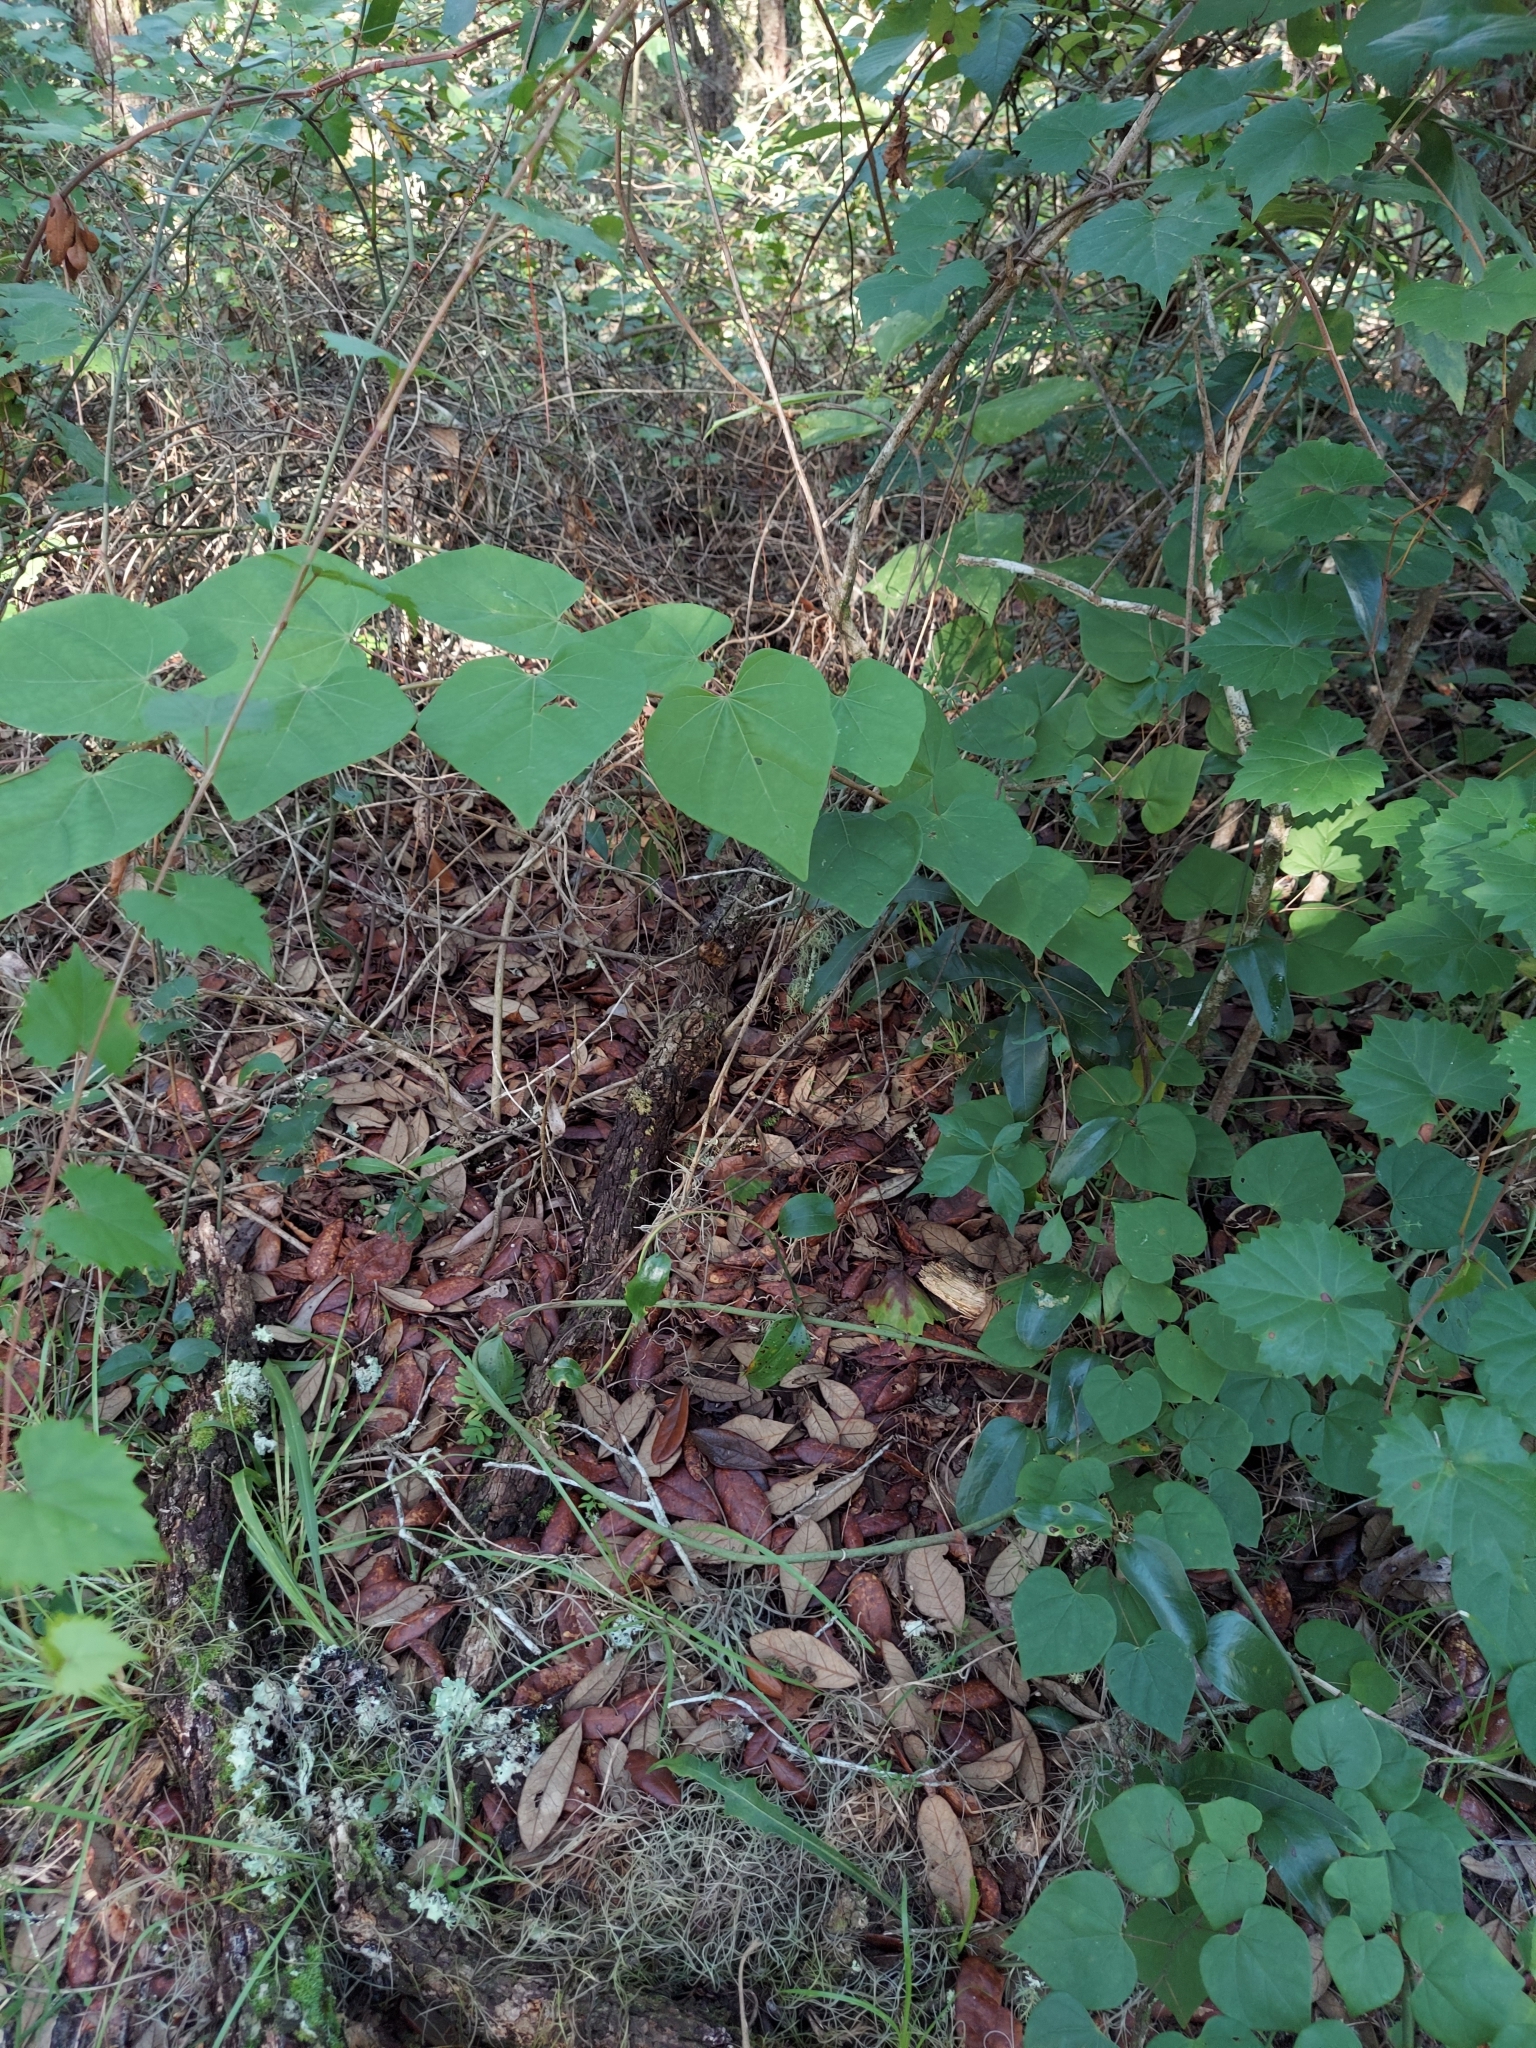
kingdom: Plantae
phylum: Tracheophyta
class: Magnoliopsida
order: Fabales
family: Fabaceae
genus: Cercis
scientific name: Cercis canadensis
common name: Eastern redbud
